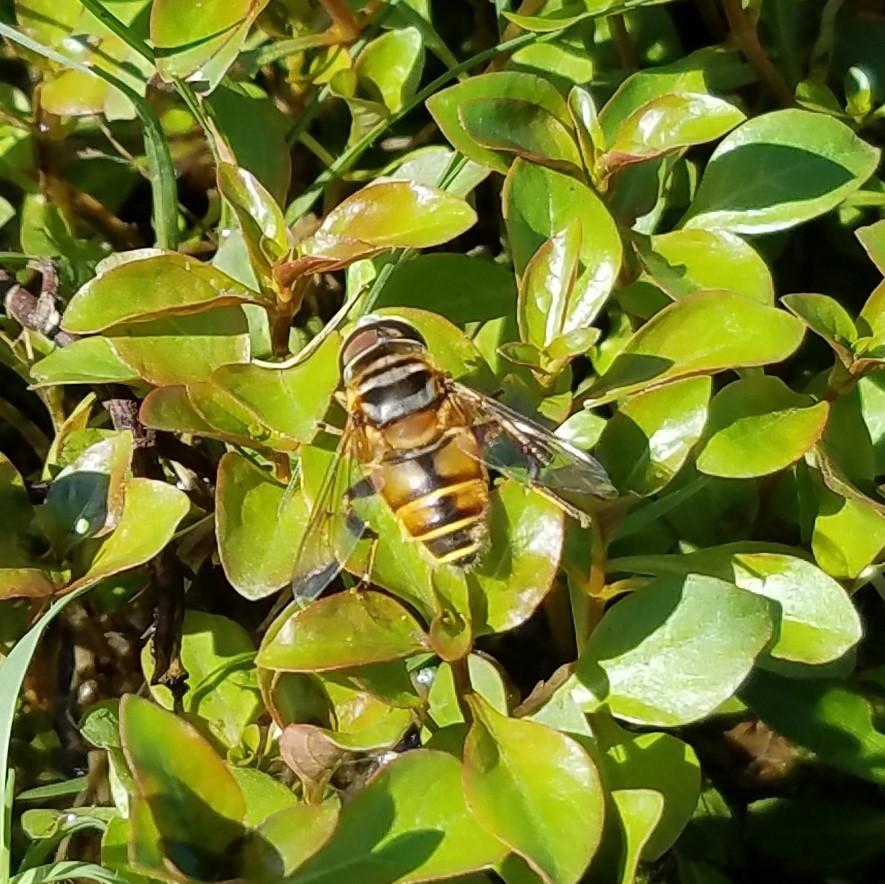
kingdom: Animalia
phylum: Arthropoda
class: Insecta
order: Diptera
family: Syrphidae
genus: Palpada
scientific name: Palpada vinetorum
